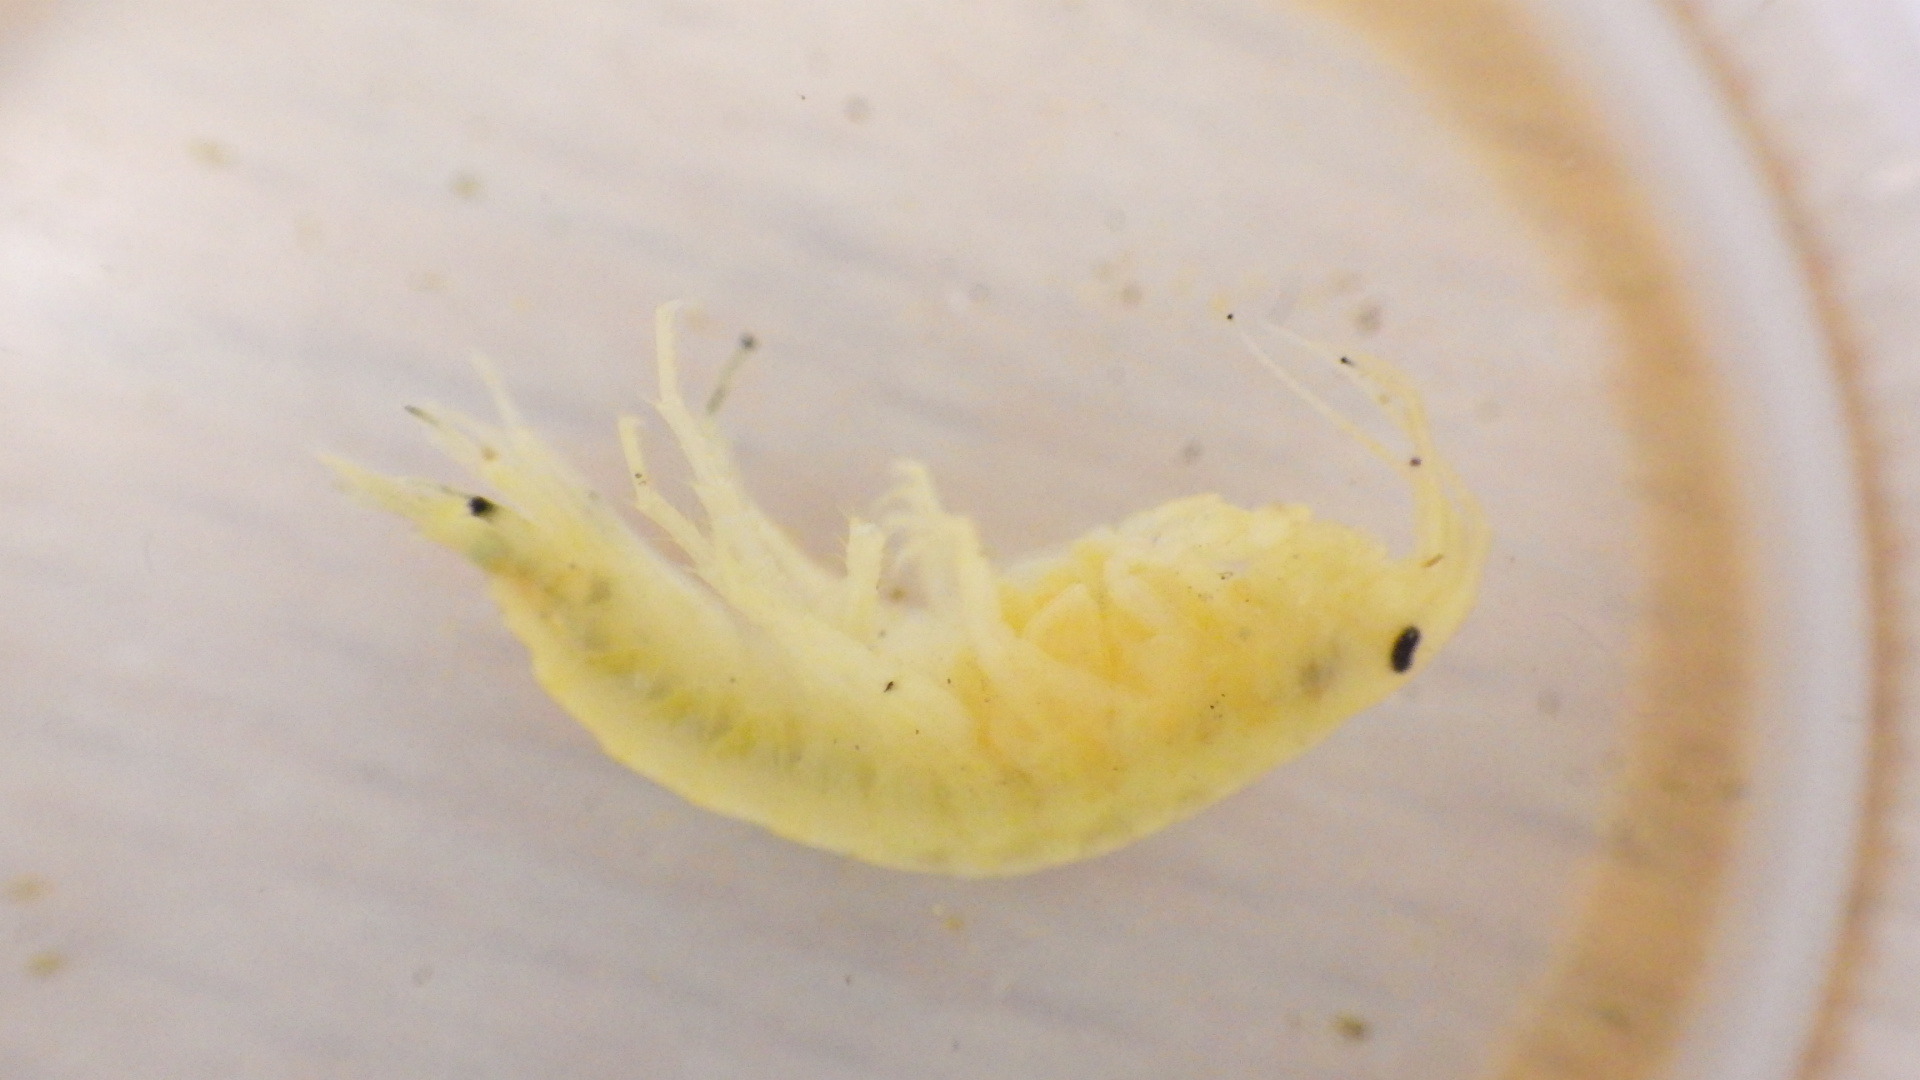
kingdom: Animalia
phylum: Arthropoda
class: Malacostraca
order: Amphipoda
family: Gammaridae
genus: Gammarus
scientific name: Gammarus fasciatus
